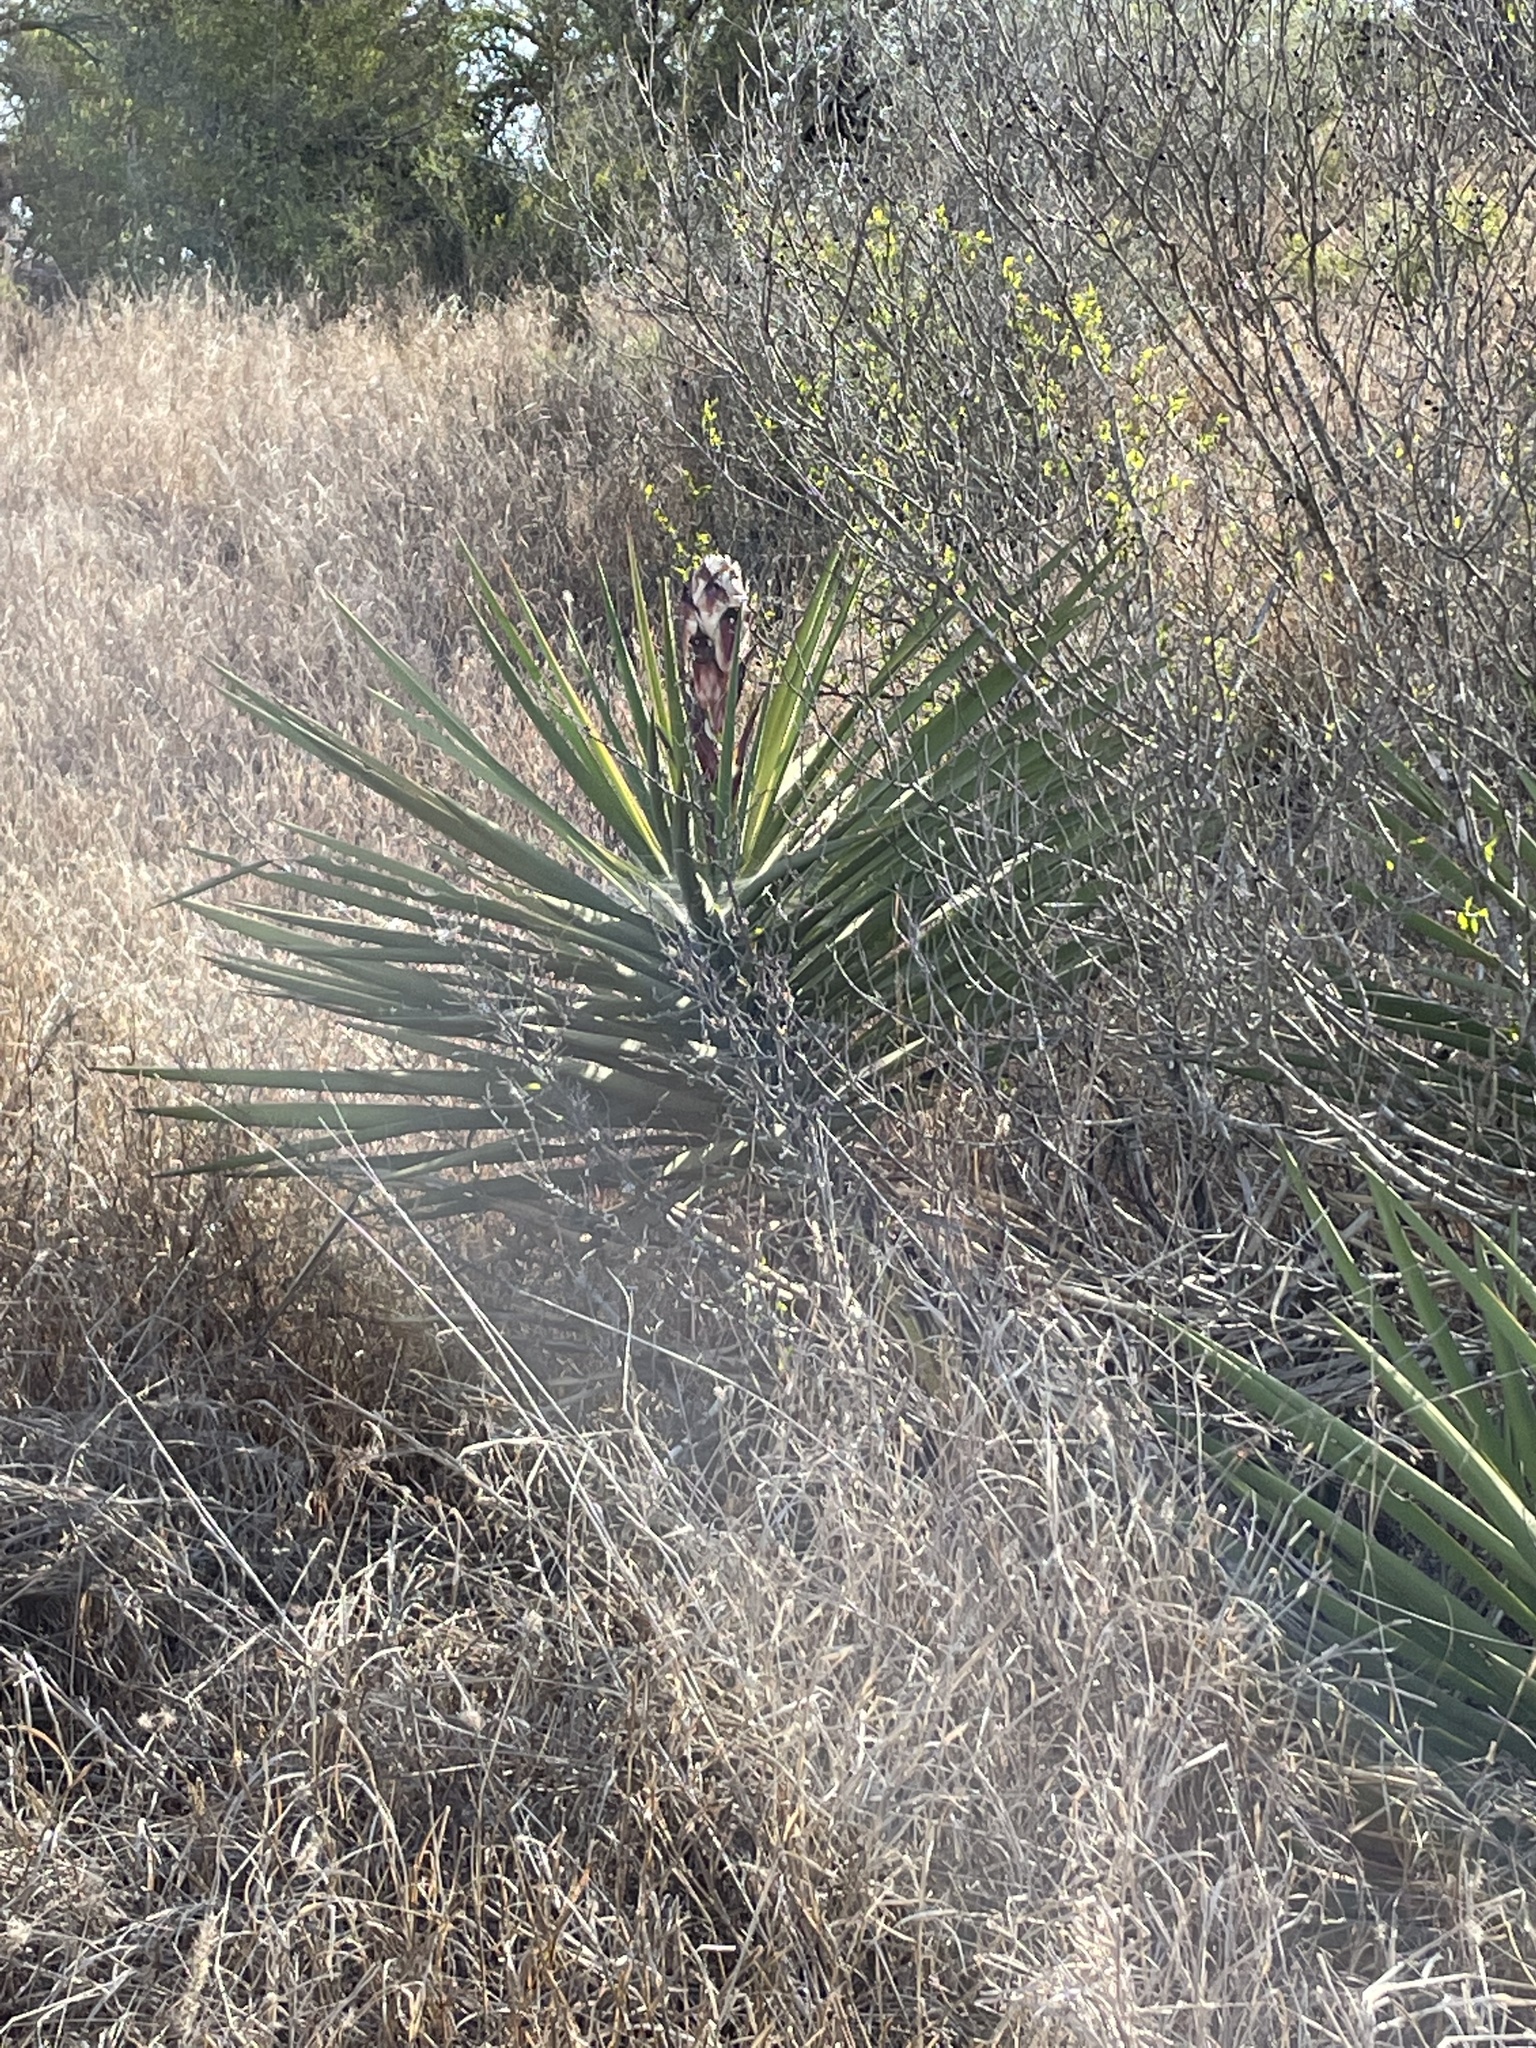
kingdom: Plantae
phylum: Tracheophyta
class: Liliopsida
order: Asparagales
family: Asparagaceae
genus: Yucca
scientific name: Yucca treculiana
